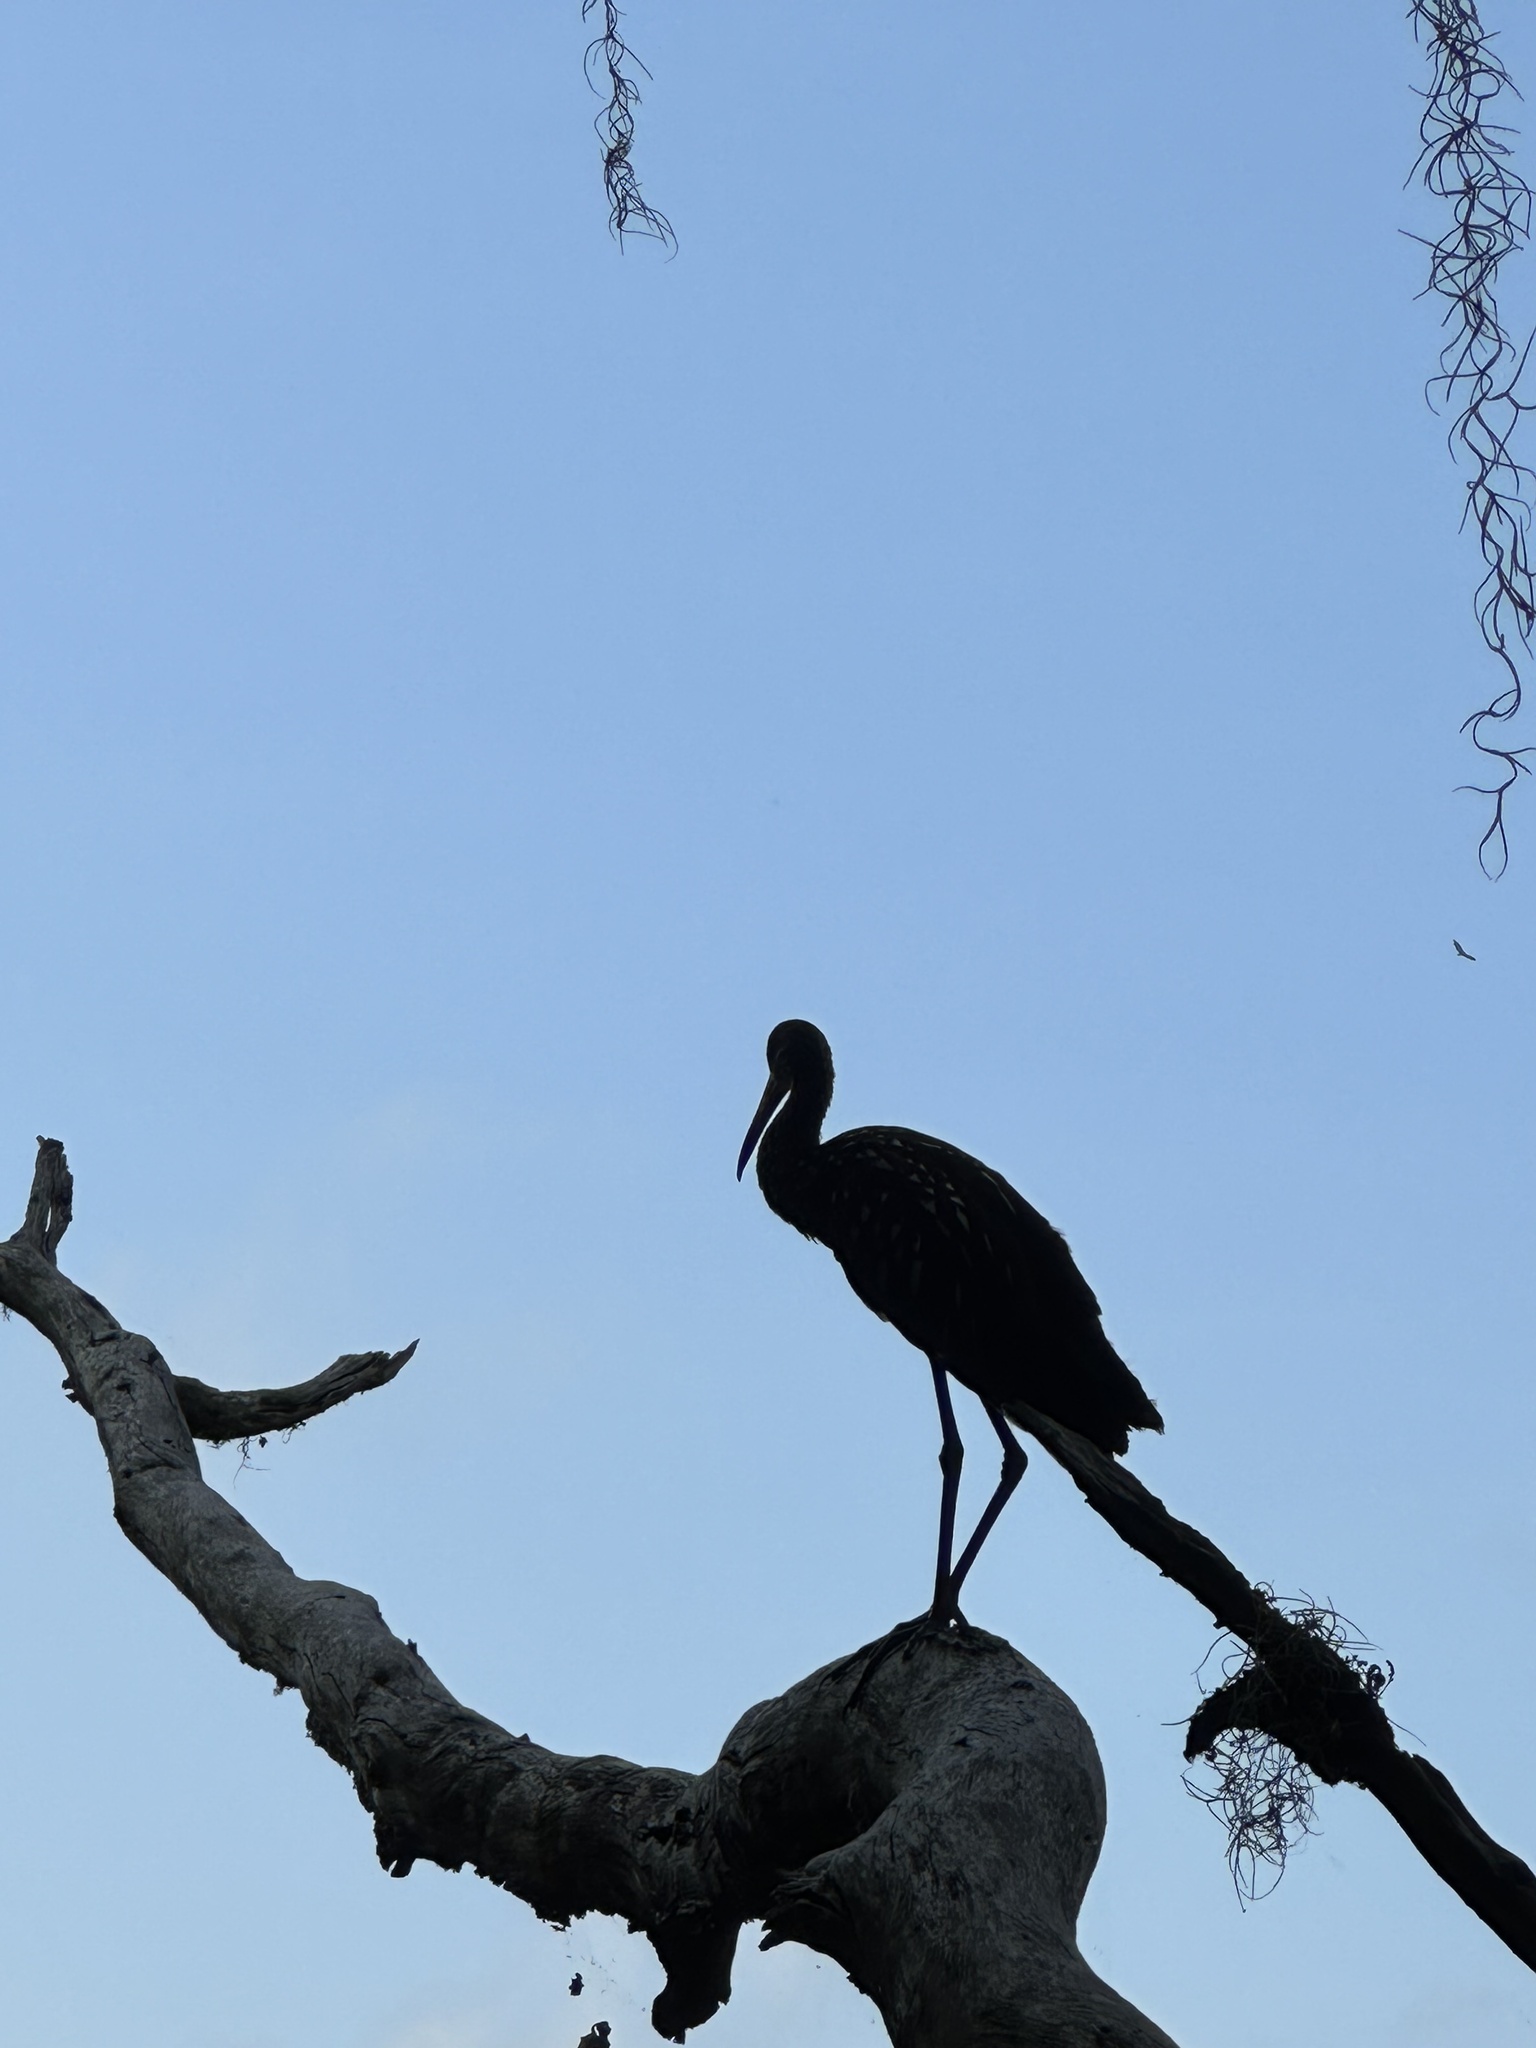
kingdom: Animalia
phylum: Chordata
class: Aves
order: Gruiformes
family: Aramidae
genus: Aramus
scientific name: Aramus guarauna
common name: Limpkin
